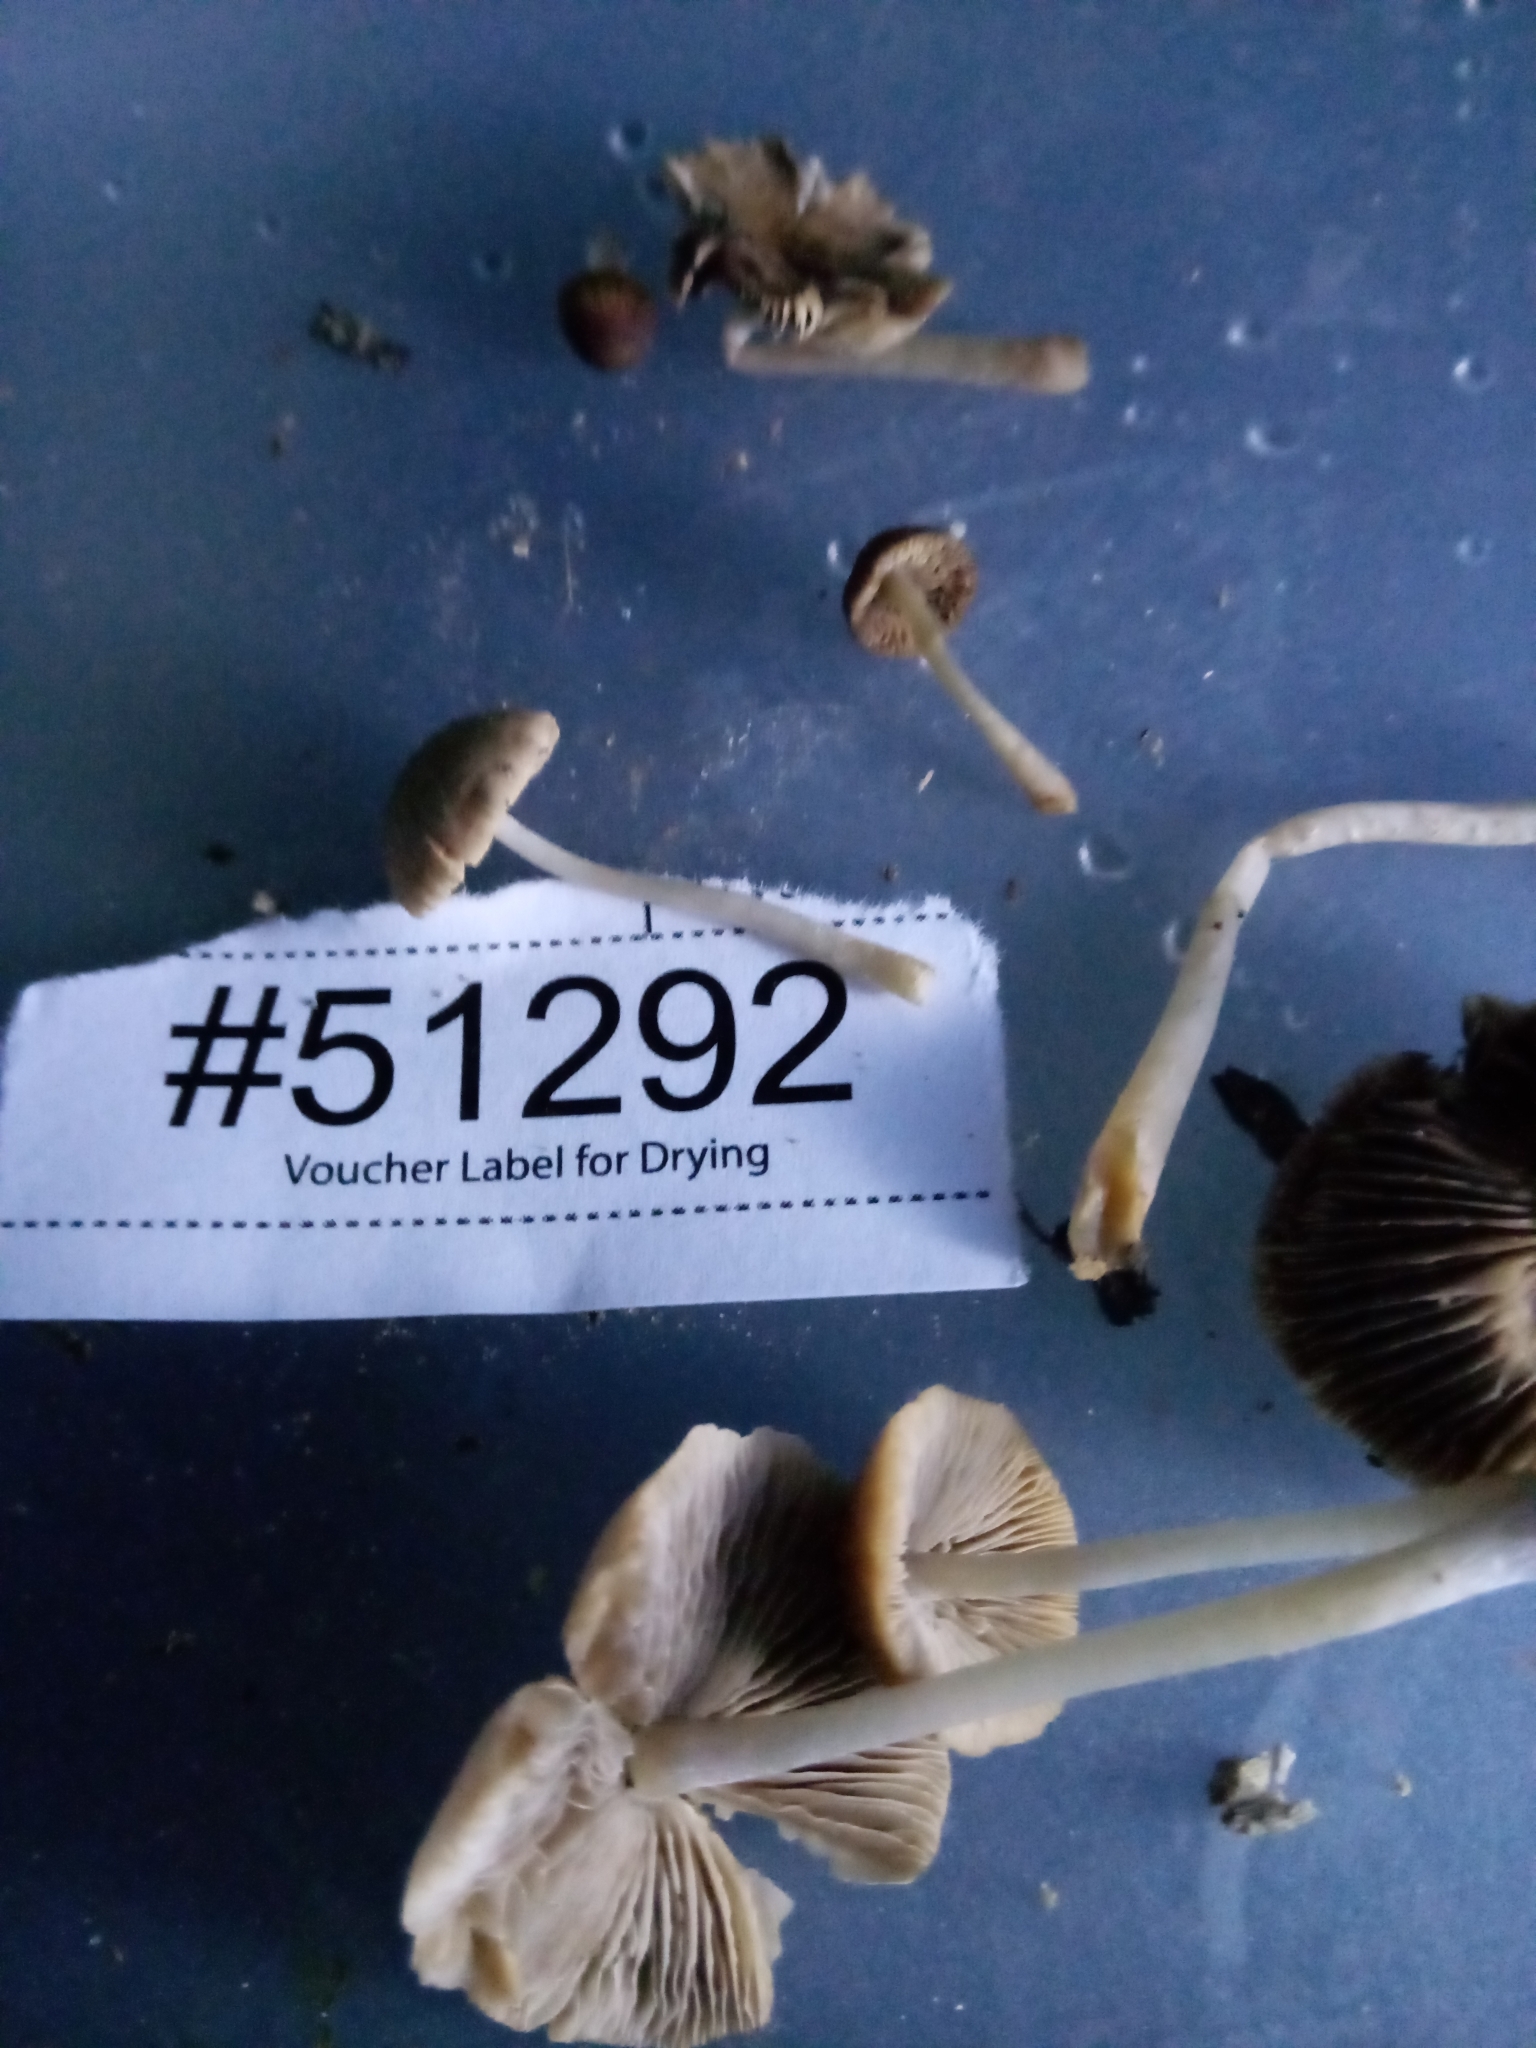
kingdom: Fungi
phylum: Basidiomycota
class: Agaricomycetes
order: Agaricales
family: Psathyrellaceae
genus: Candolleomyces
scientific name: Candolleomyces subsingeri
